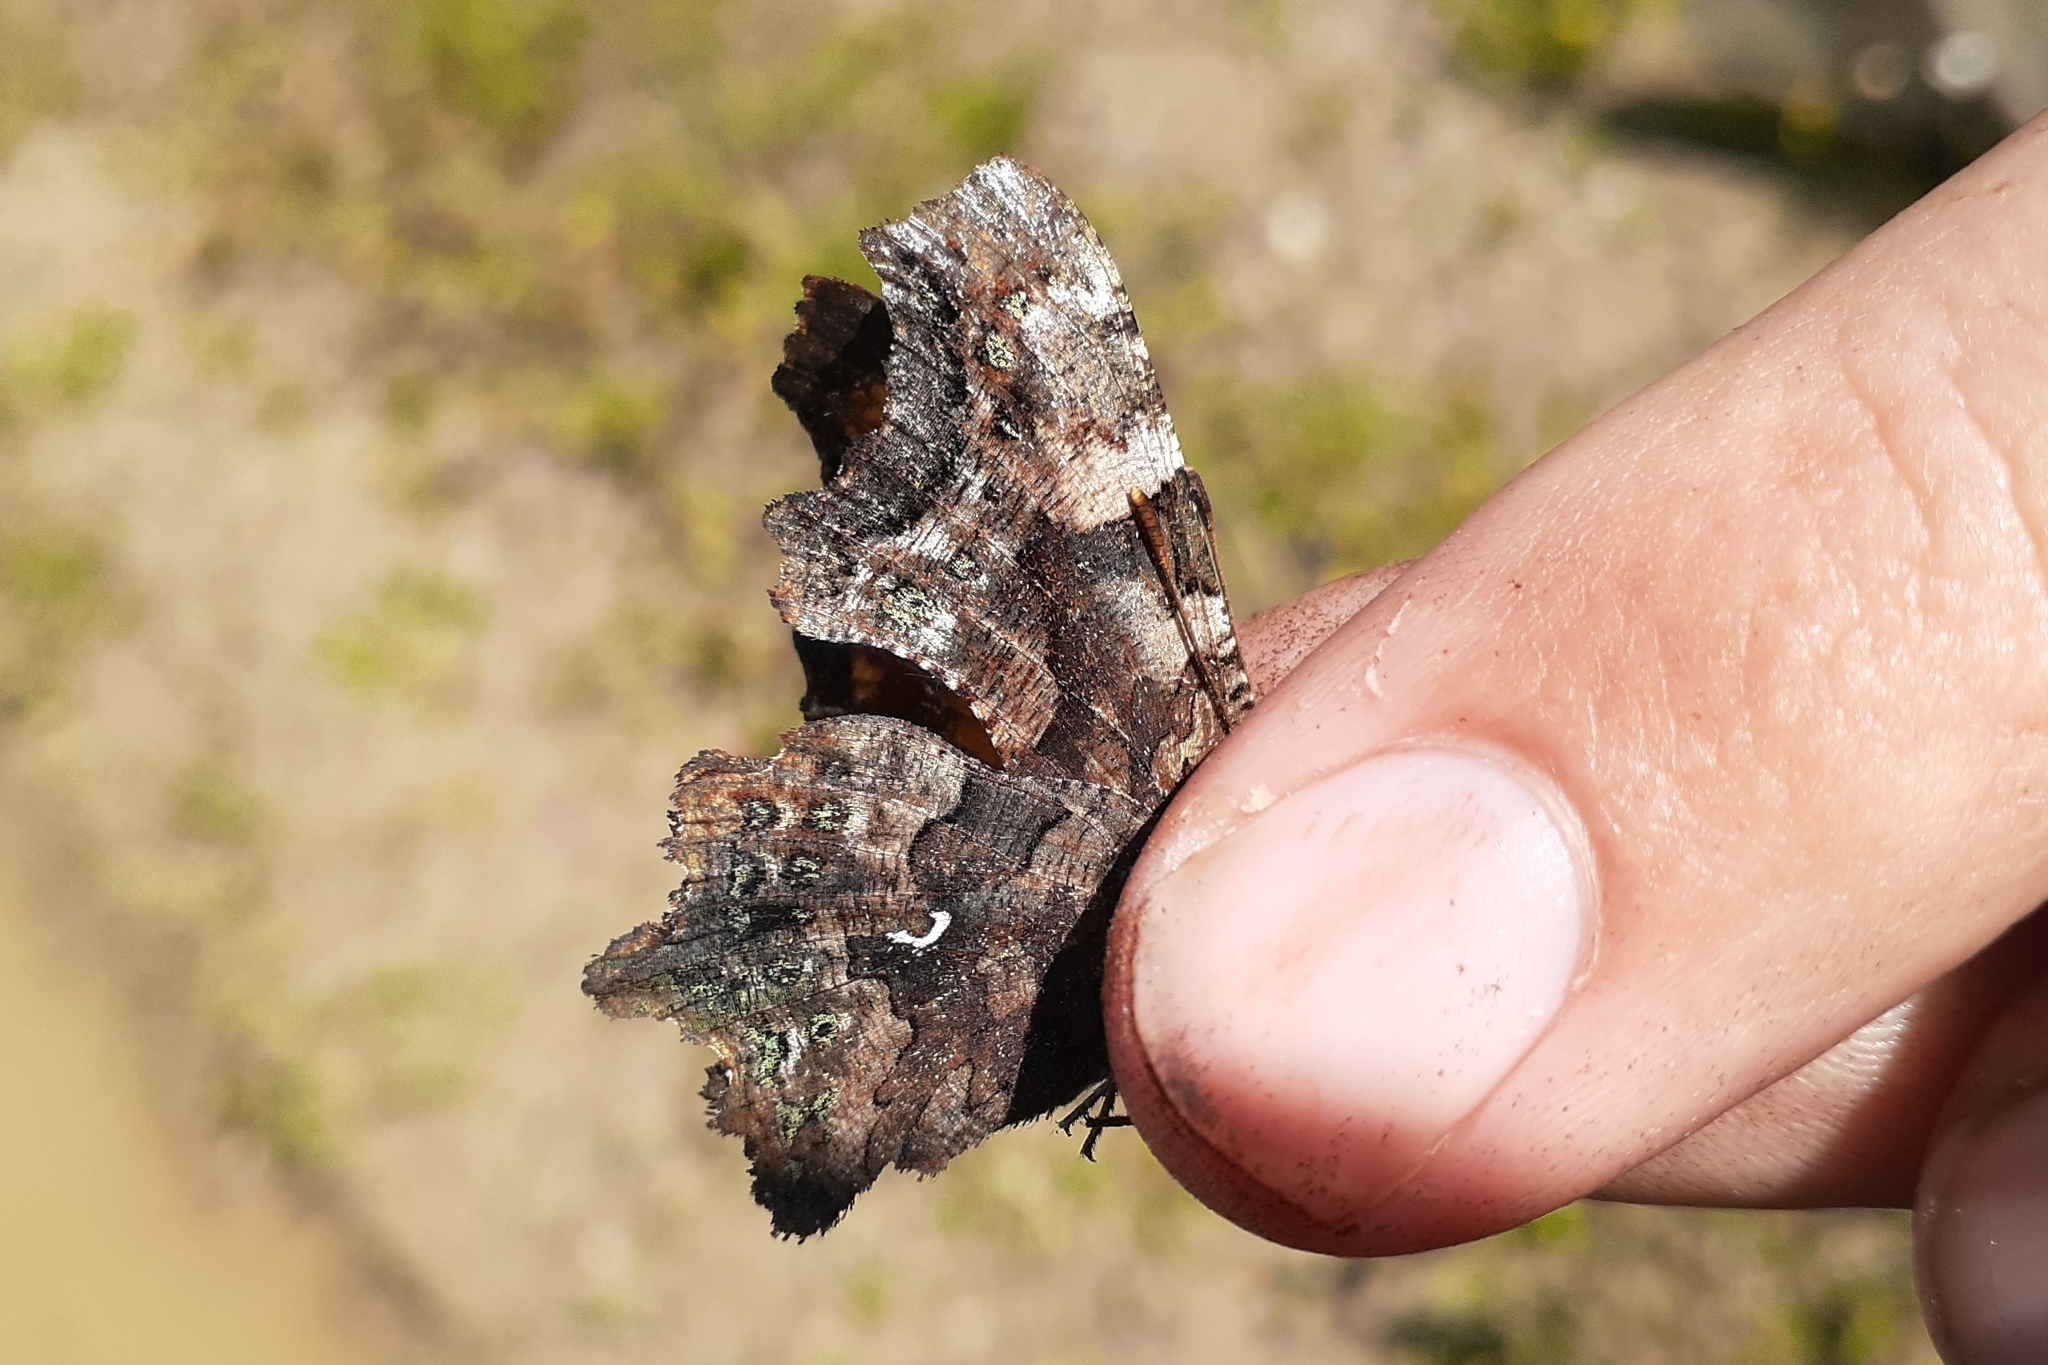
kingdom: Animalia
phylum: Arthropoda
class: Insecta
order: Lepidoptera
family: Nymphalidae
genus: Polygonia
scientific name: Polygonia faunus
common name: Green comma
